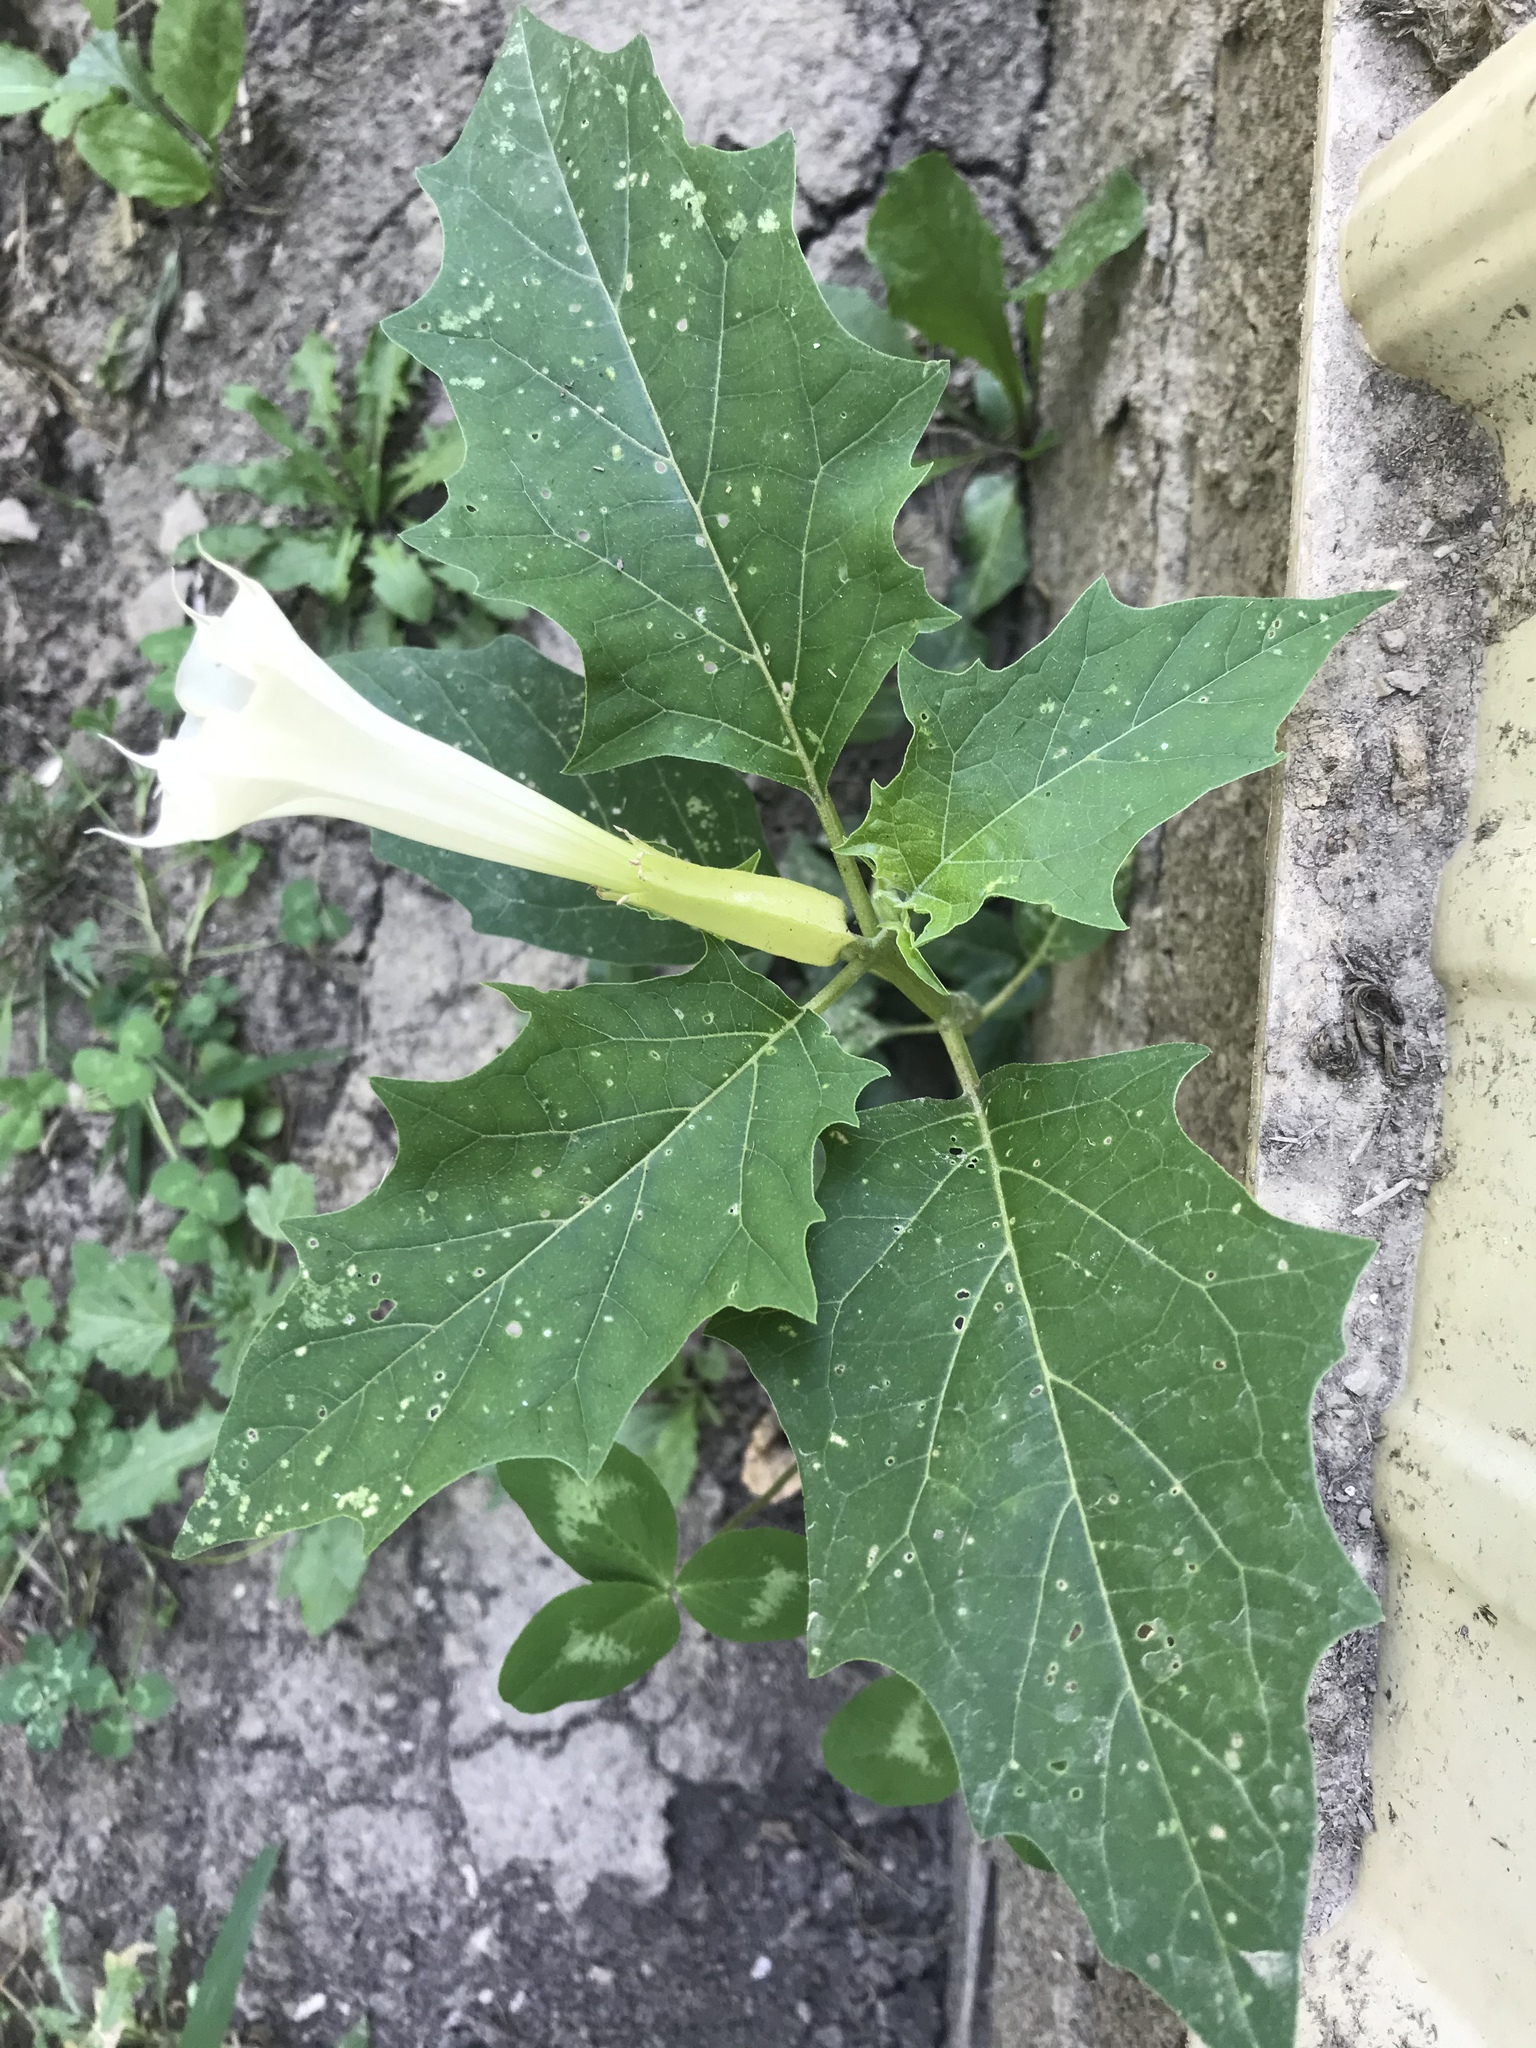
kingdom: Plantae
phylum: Tracheophyta
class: Magnoliopsida
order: Solanales
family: Solanaceae
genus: Datura
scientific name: Datura stramonium
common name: Thorn-apple
